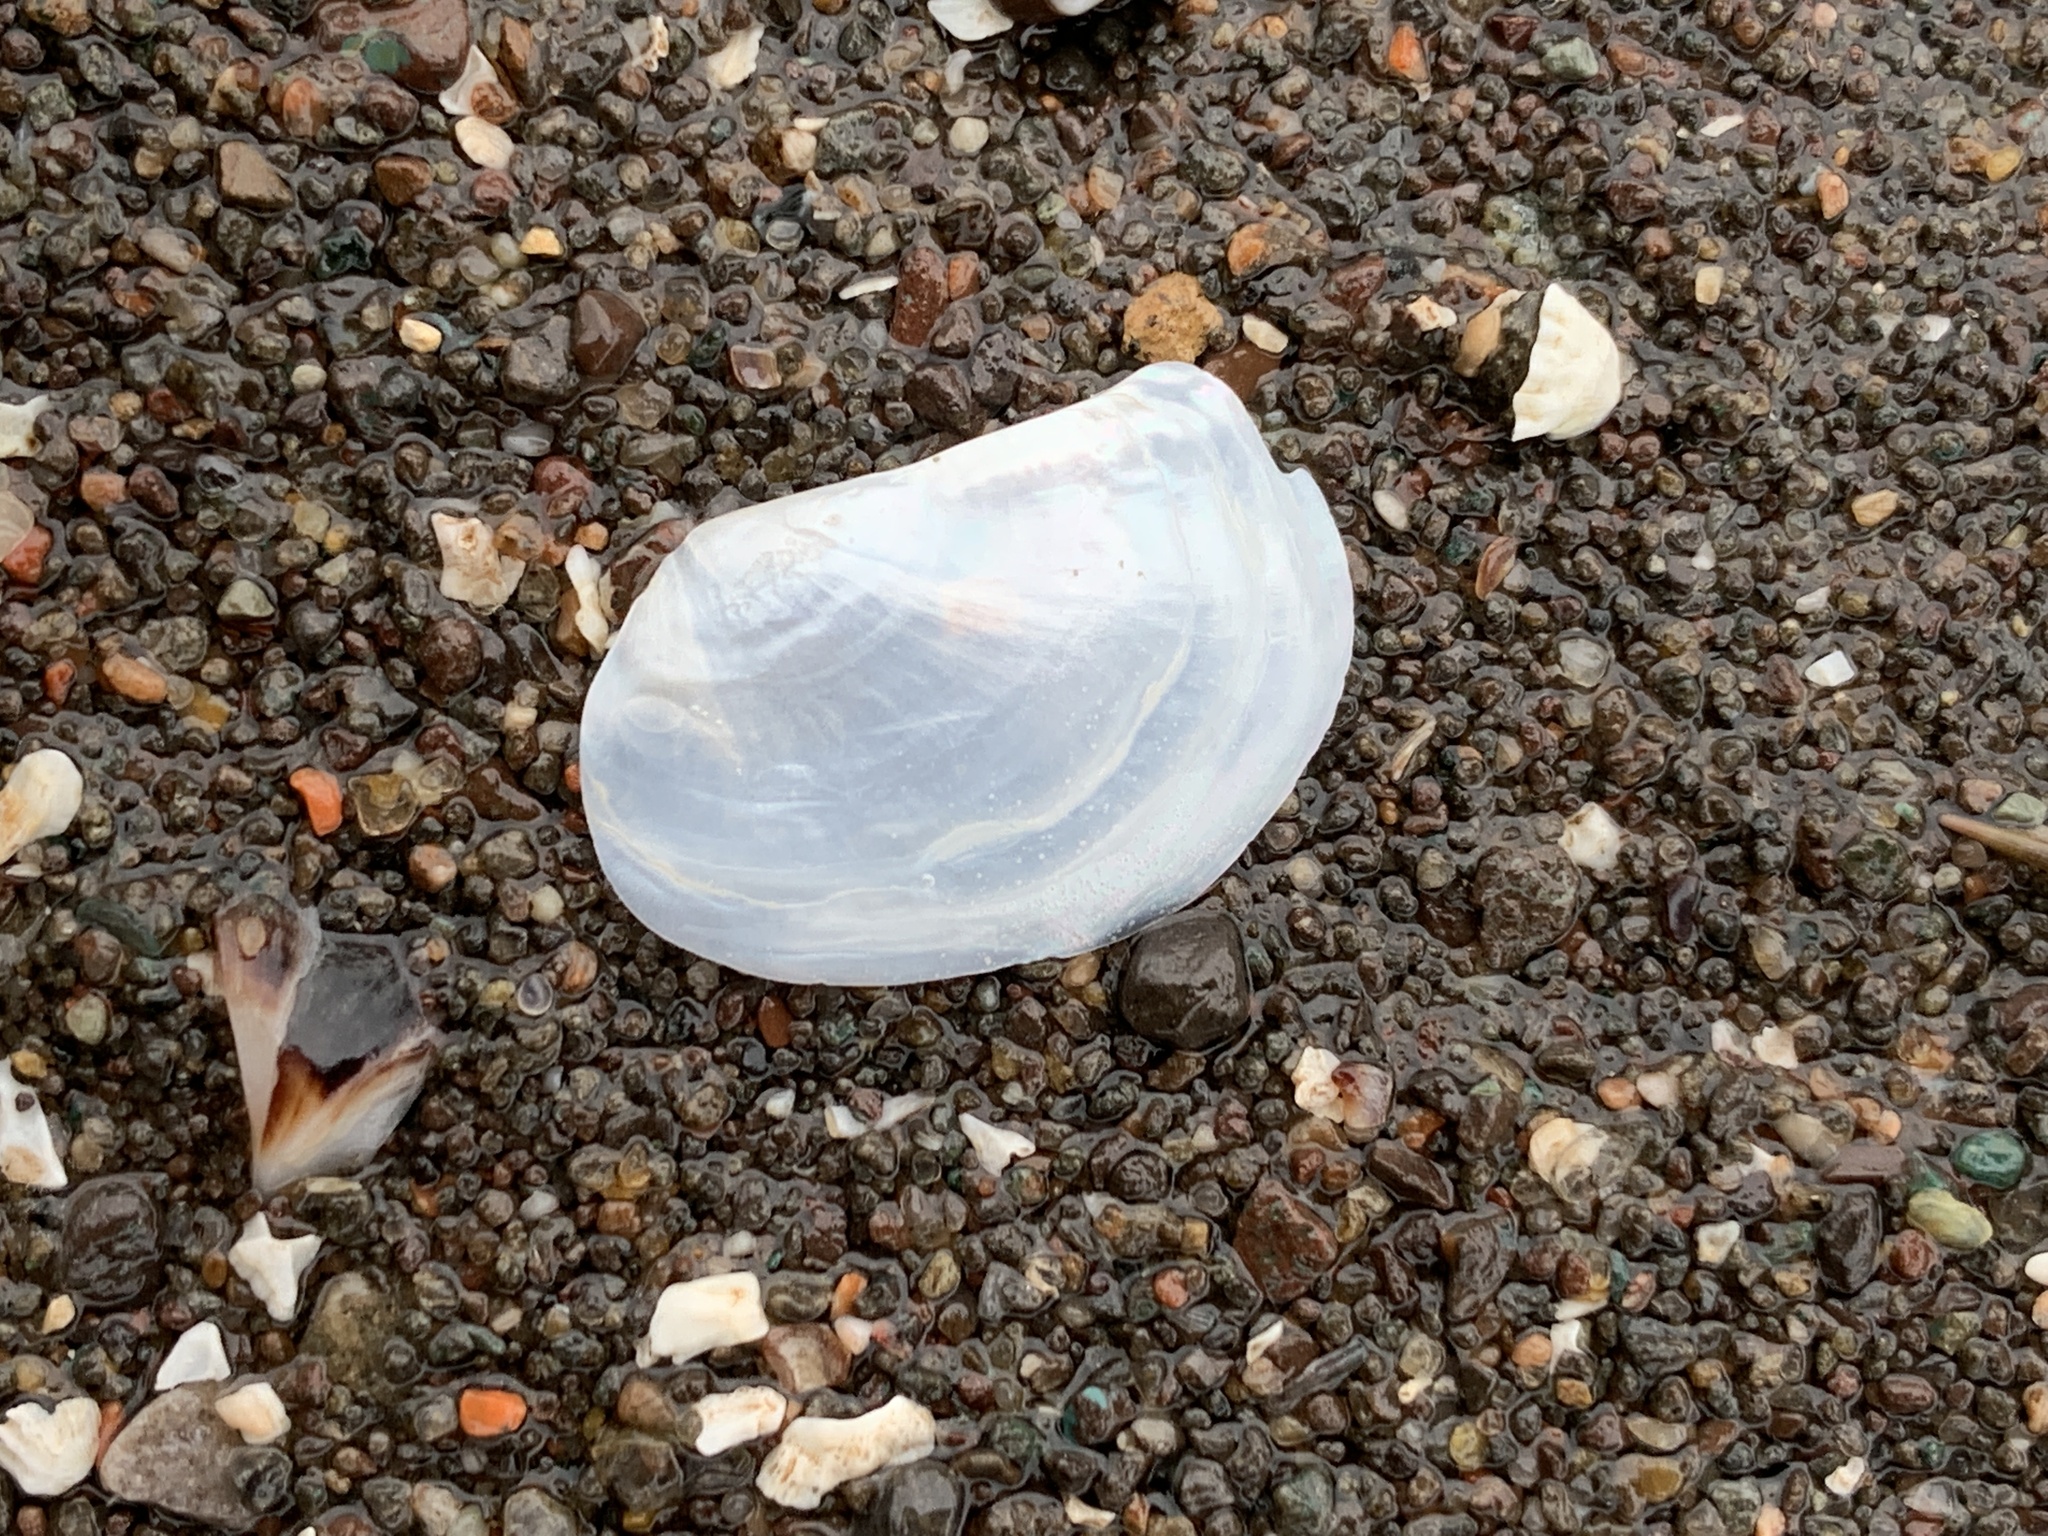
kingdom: Animalia
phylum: Mollusca
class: Bivalvia
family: Pandoridae
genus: Pandora
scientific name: Pandora gouldiana
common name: Rounded pandora
